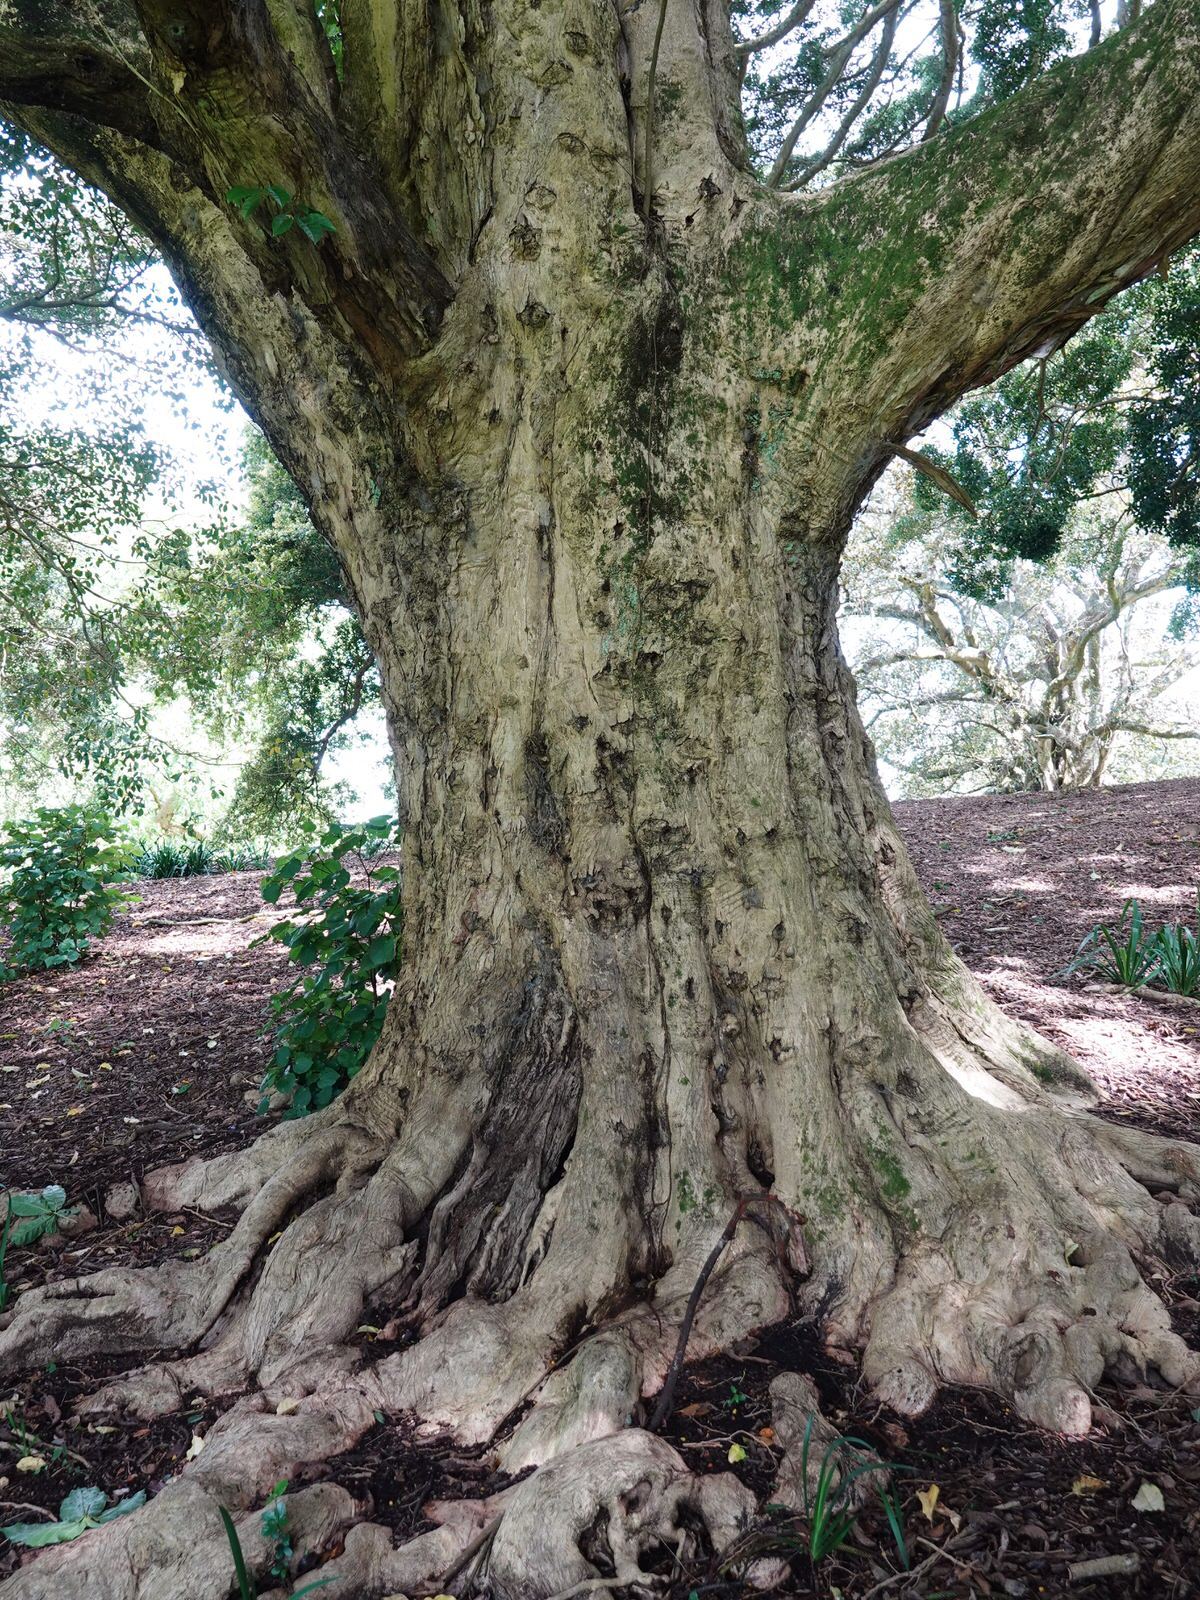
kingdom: Animalia
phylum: Arthropoda
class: Insecta
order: Lepidoptera
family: Hepialidae
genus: Aenetus
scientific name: Aenetus virescens
